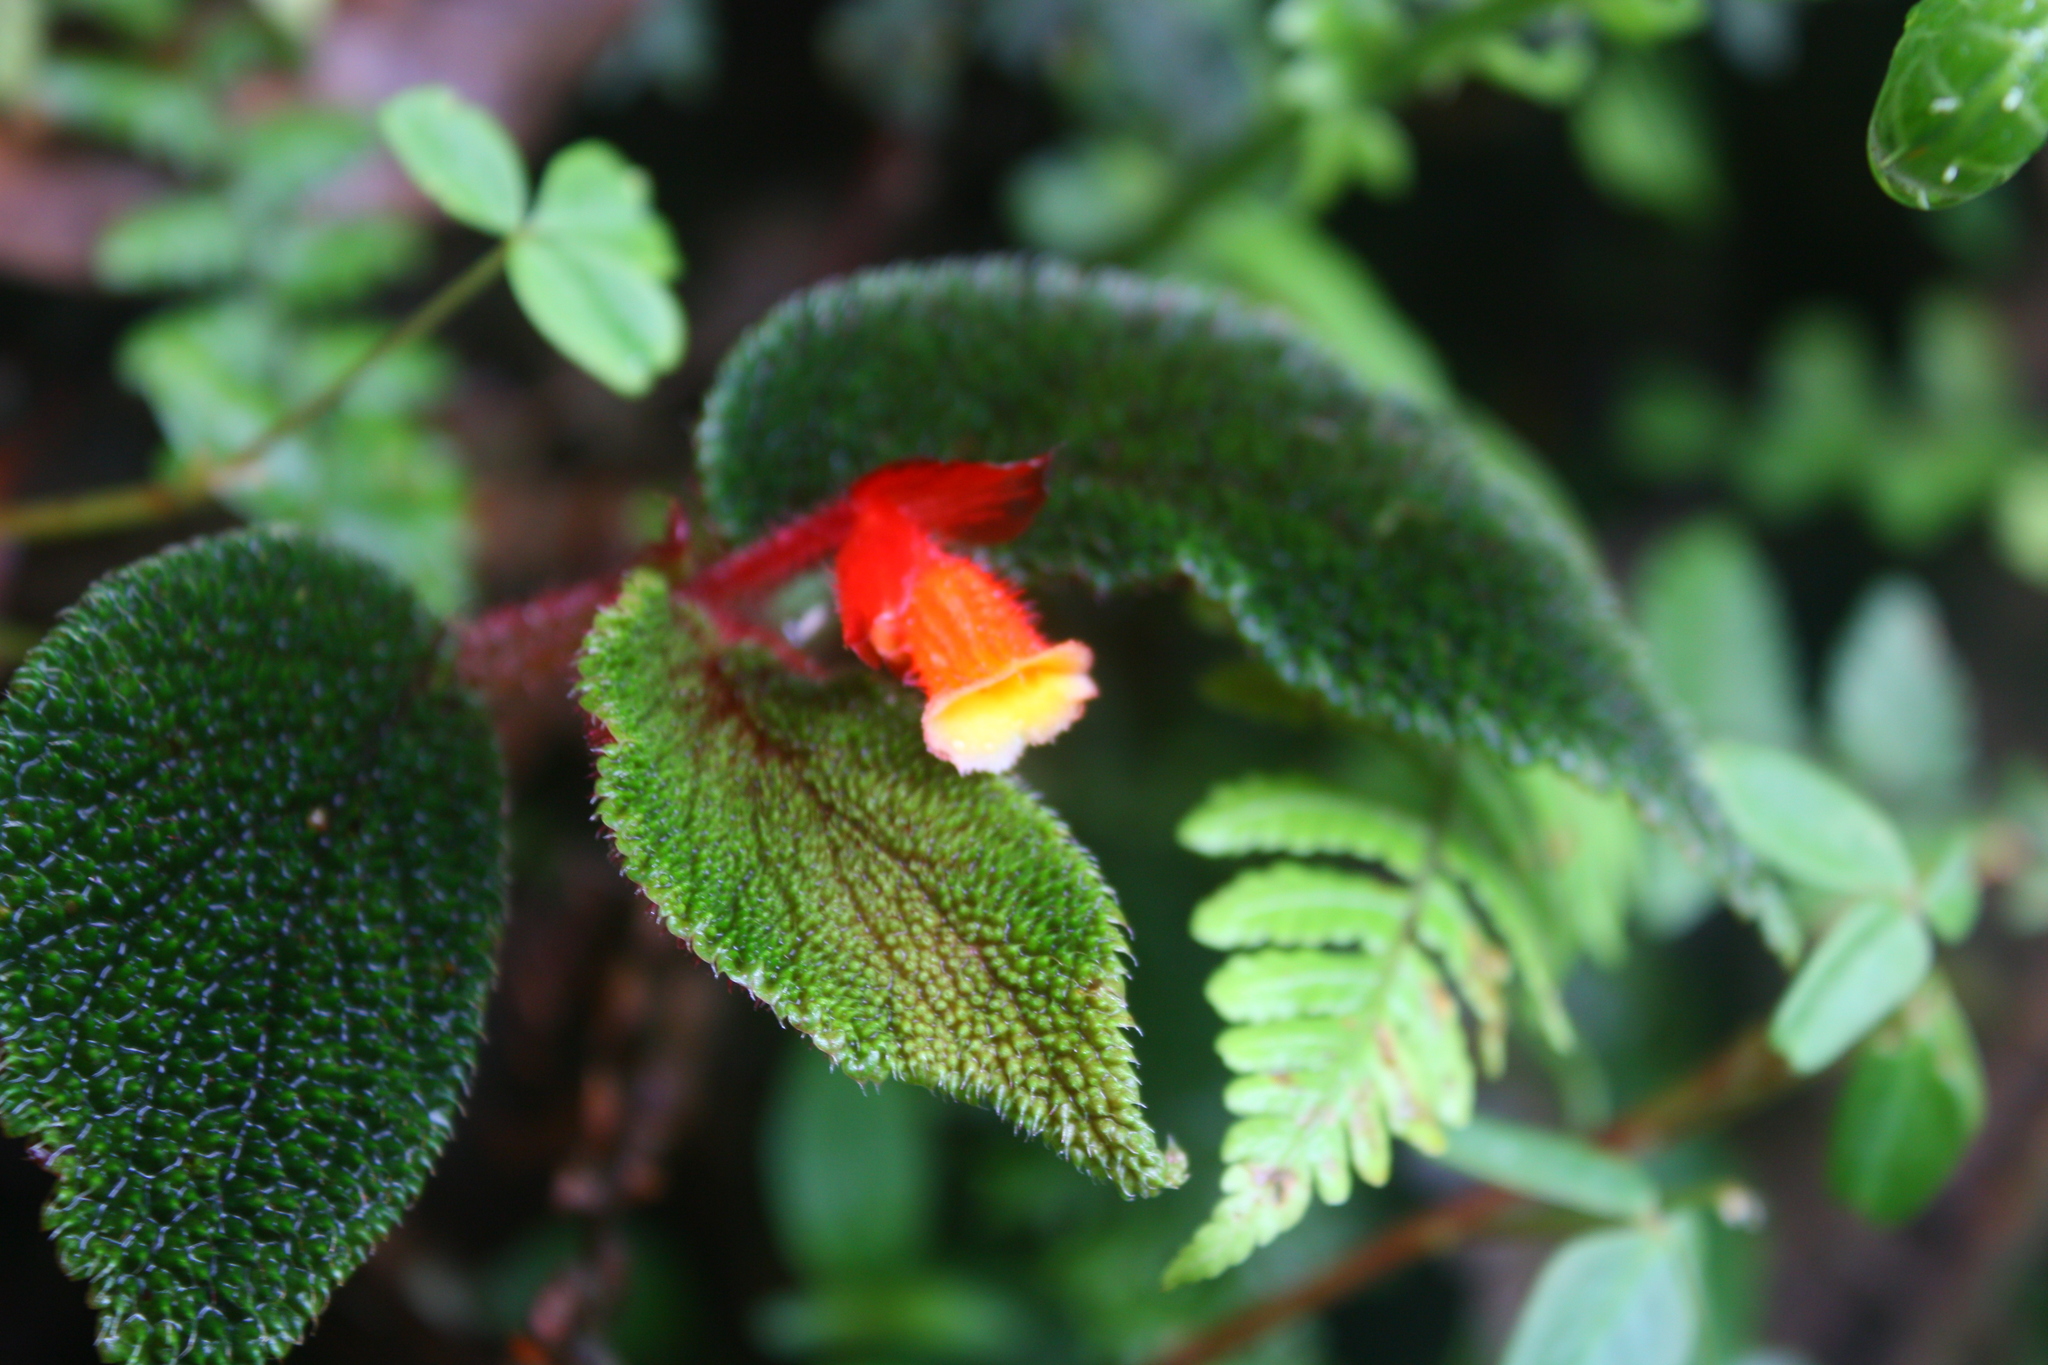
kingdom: Plantae
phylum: Tracheophyta
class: Magnoliopsida
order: Cucurbitales
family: Begoniaceae
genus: Begonia
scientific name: Begonia lehmannii
